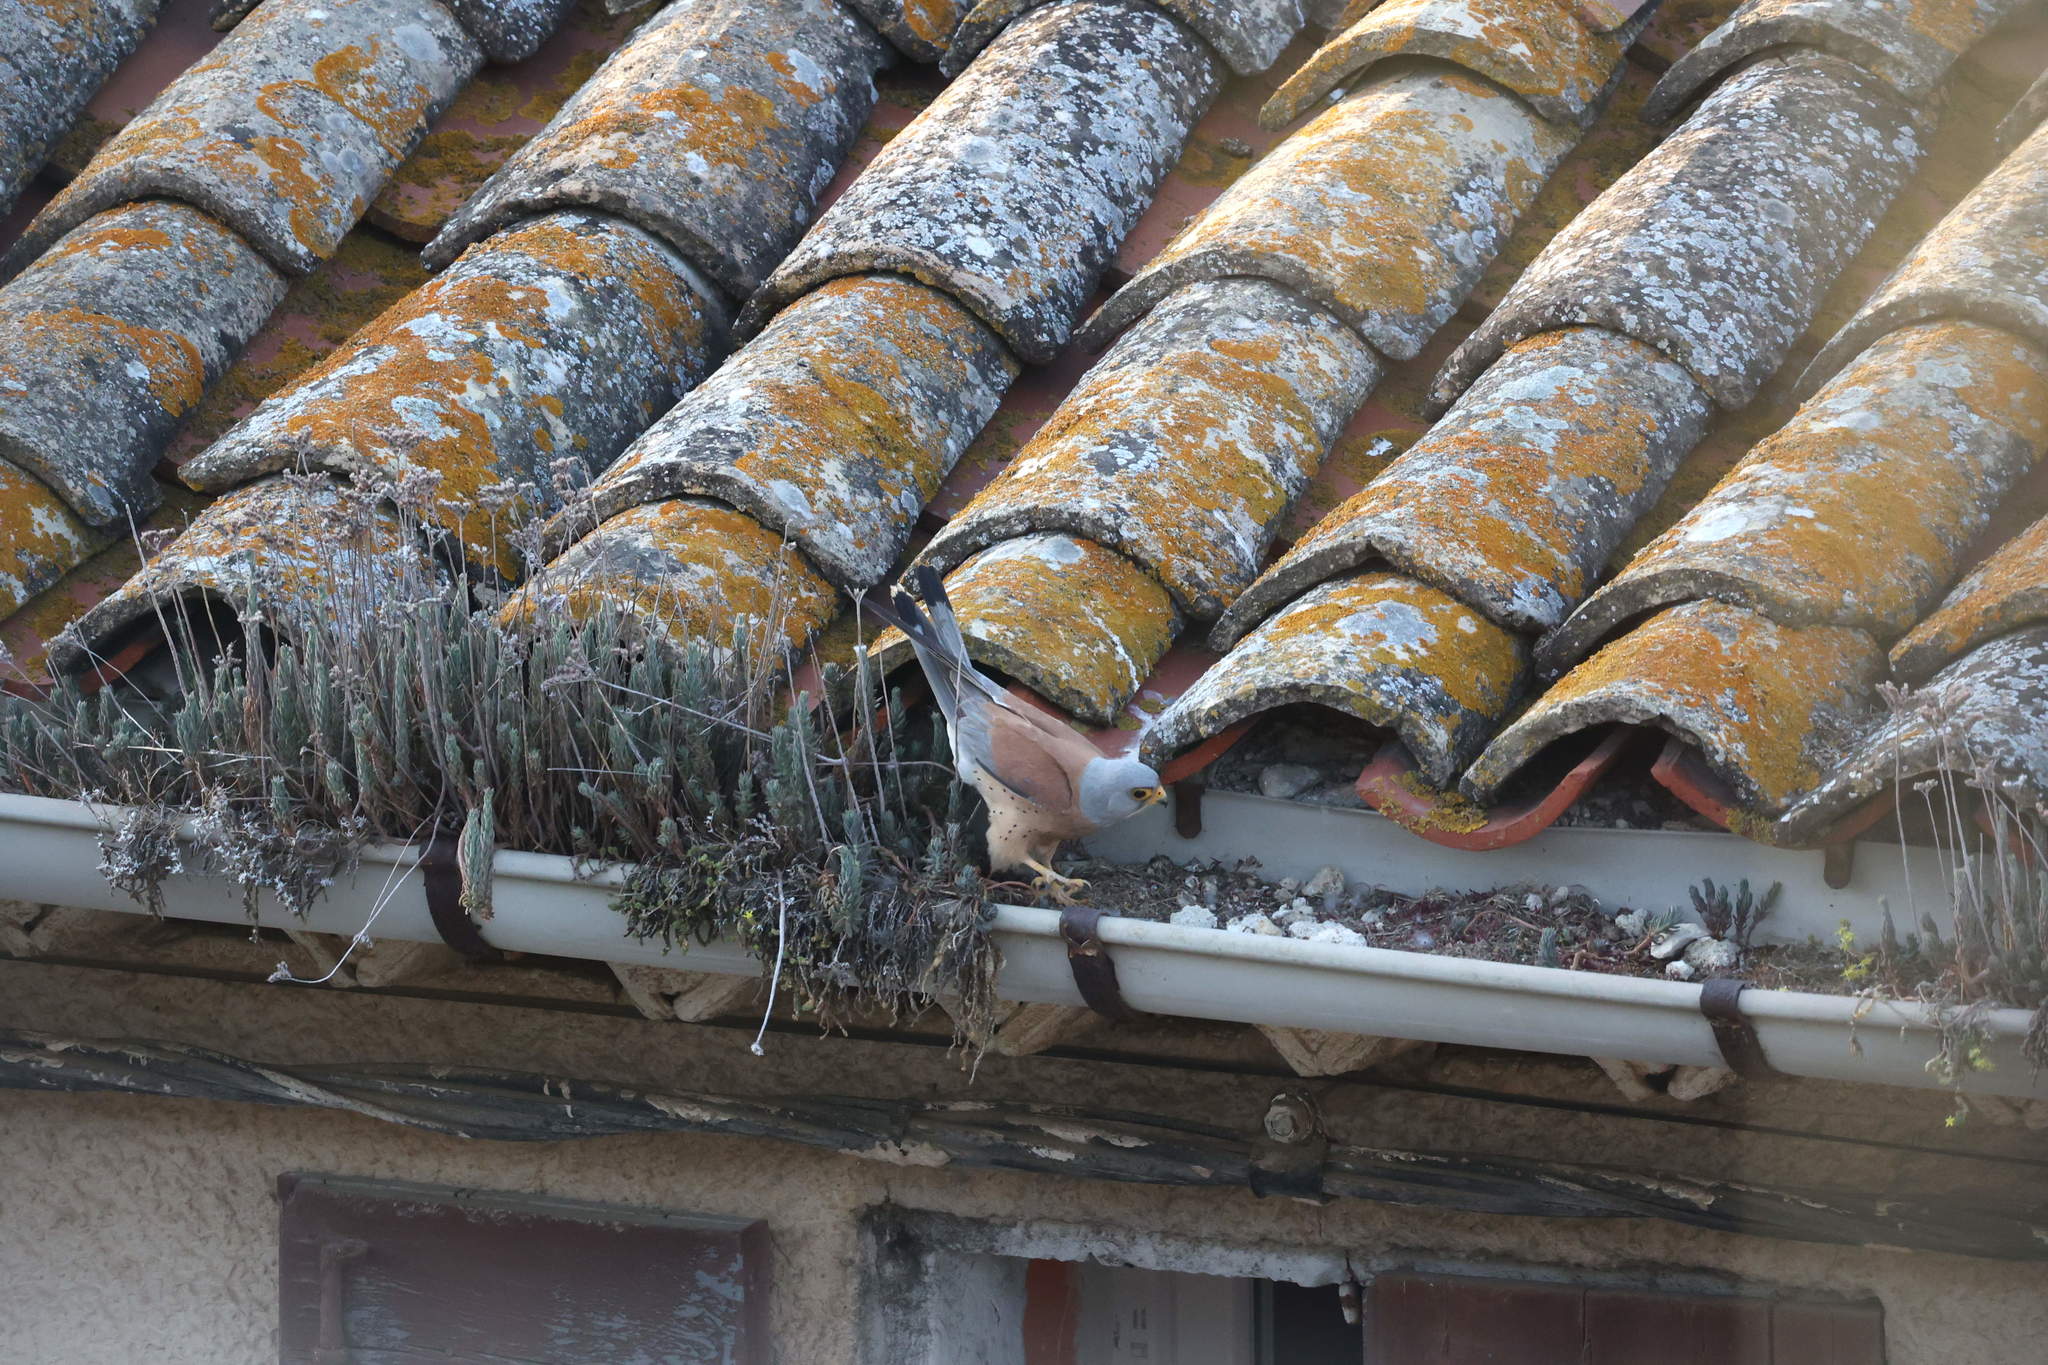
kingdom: Animalia
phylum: Chordata
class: Aves
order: Falconiformes
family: Falconidae
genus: Falco
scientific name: Falco naumanni
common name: Lesser kestrel
